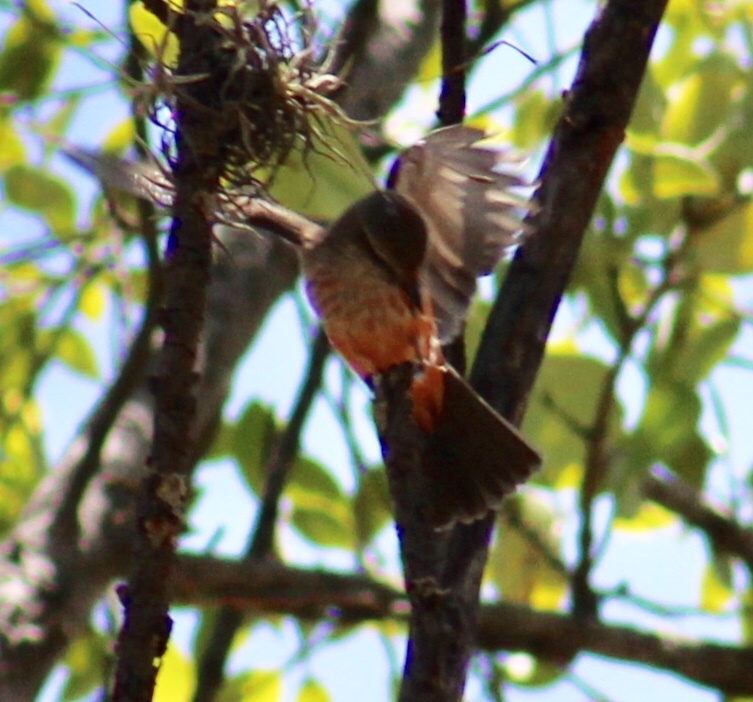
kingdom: Animalia
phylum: Chordata
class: Aves
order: Passeriformes
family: Tyrannidae
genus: Pyrocephalus
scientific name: Pyrocephalus rubinus
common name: Vermilion flycatcher
